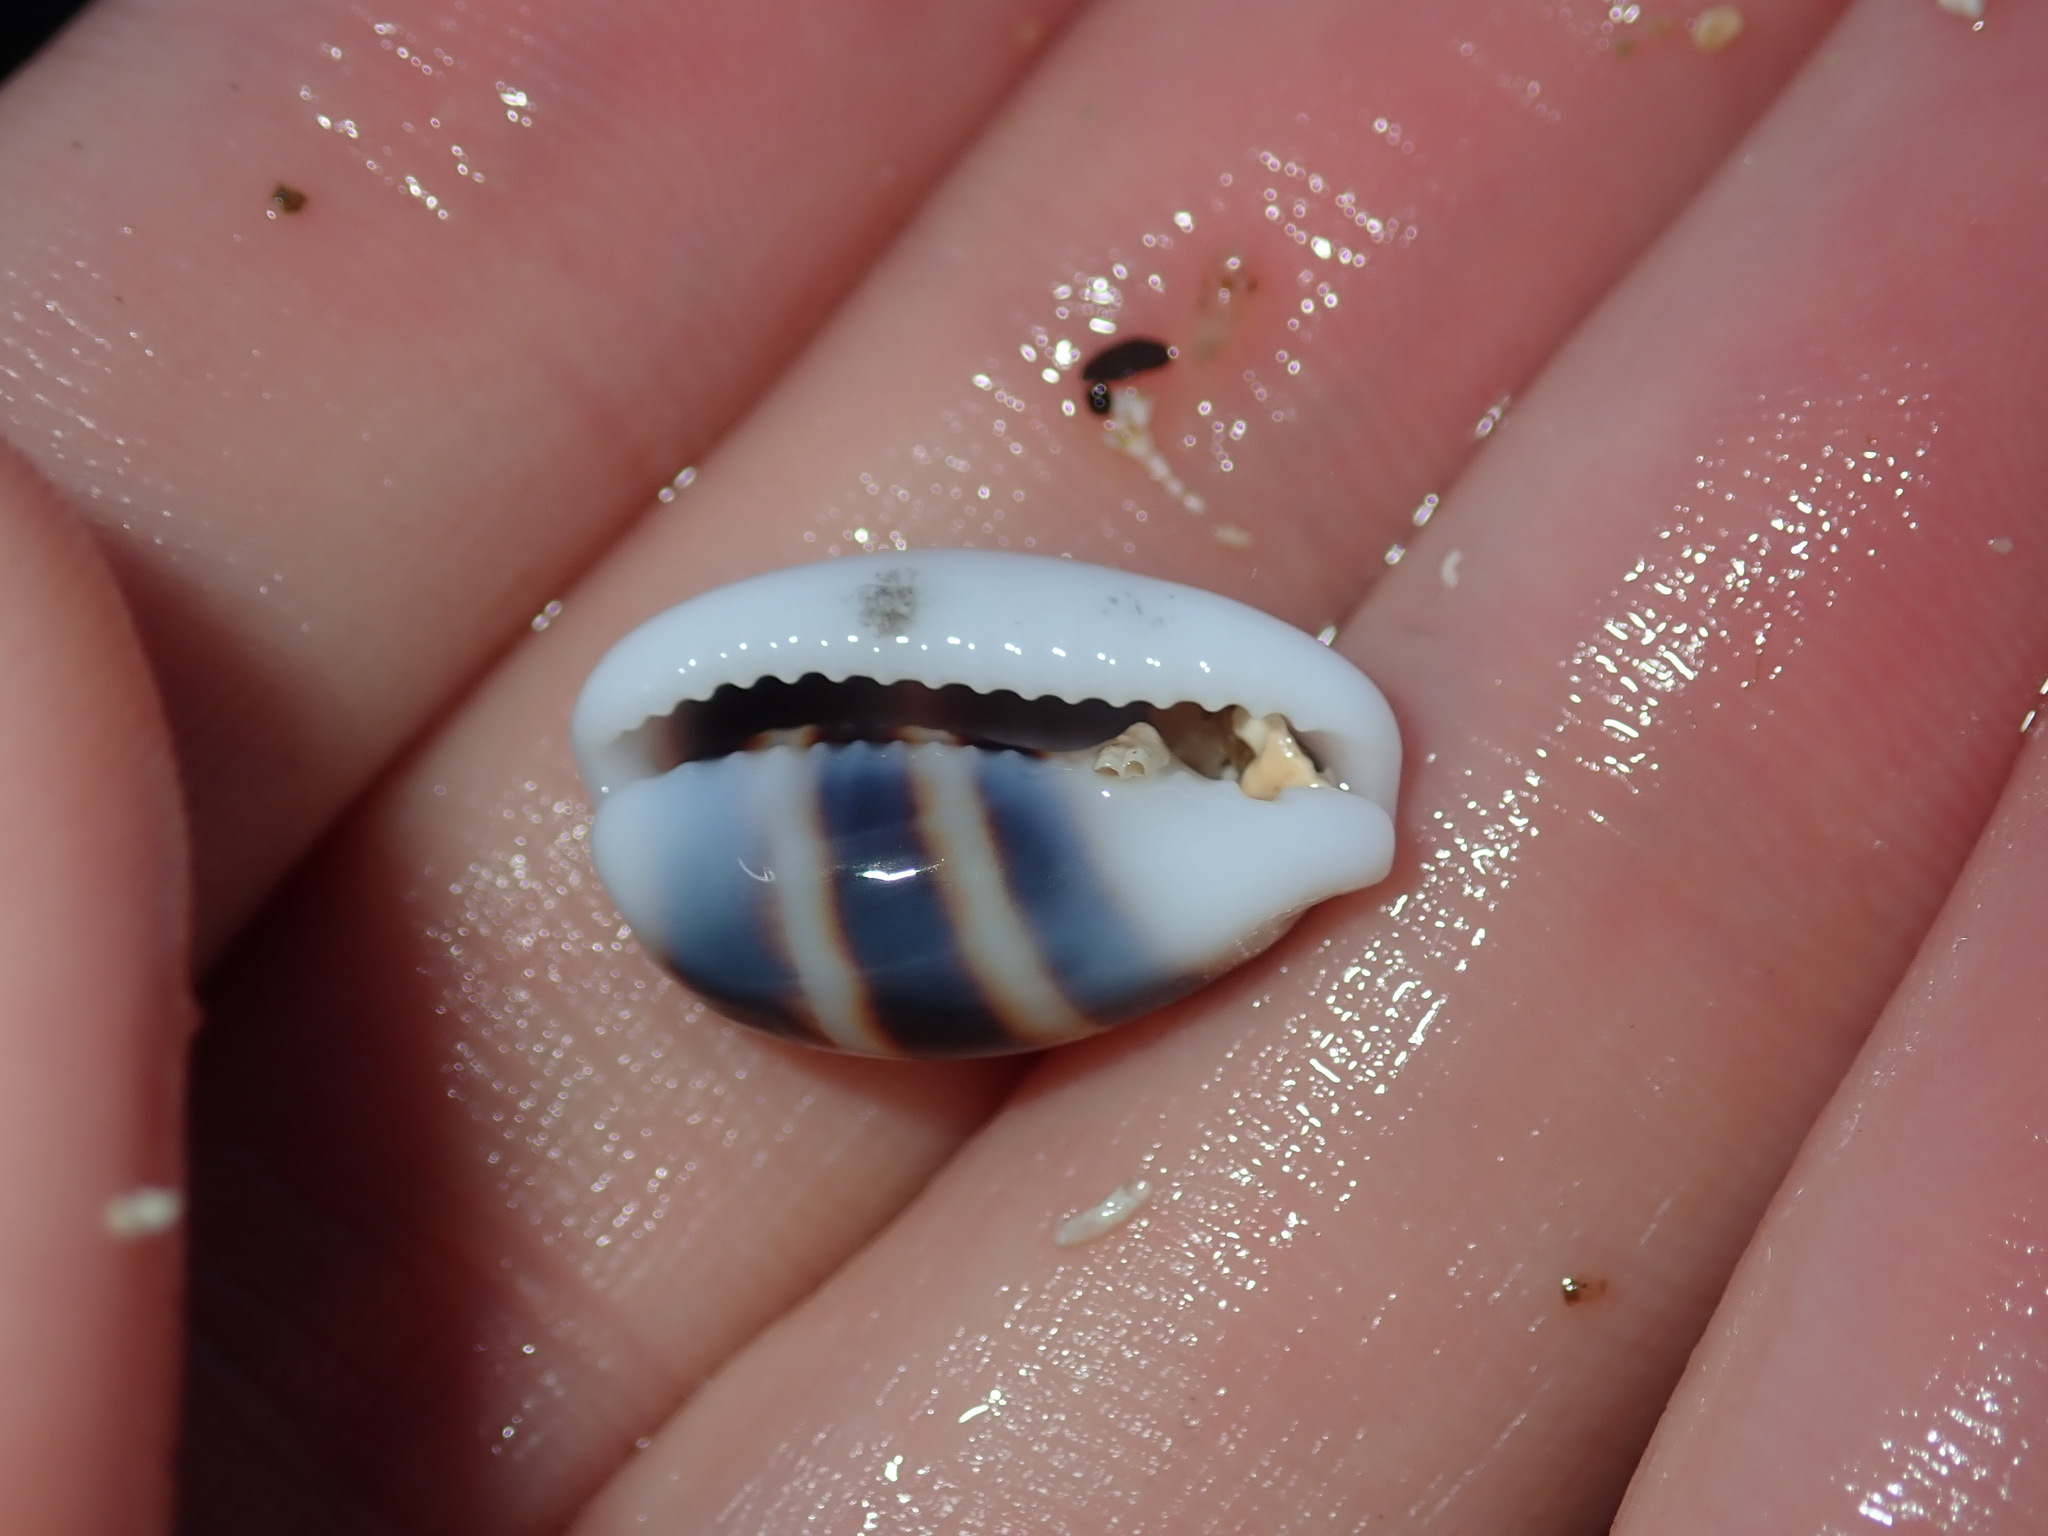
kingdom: Animalia
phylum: Mollusca
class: Gastropoda
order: Littorinimorpha
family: Cypraeidae
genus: Palmadusta
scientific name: Palmadusta asellus
